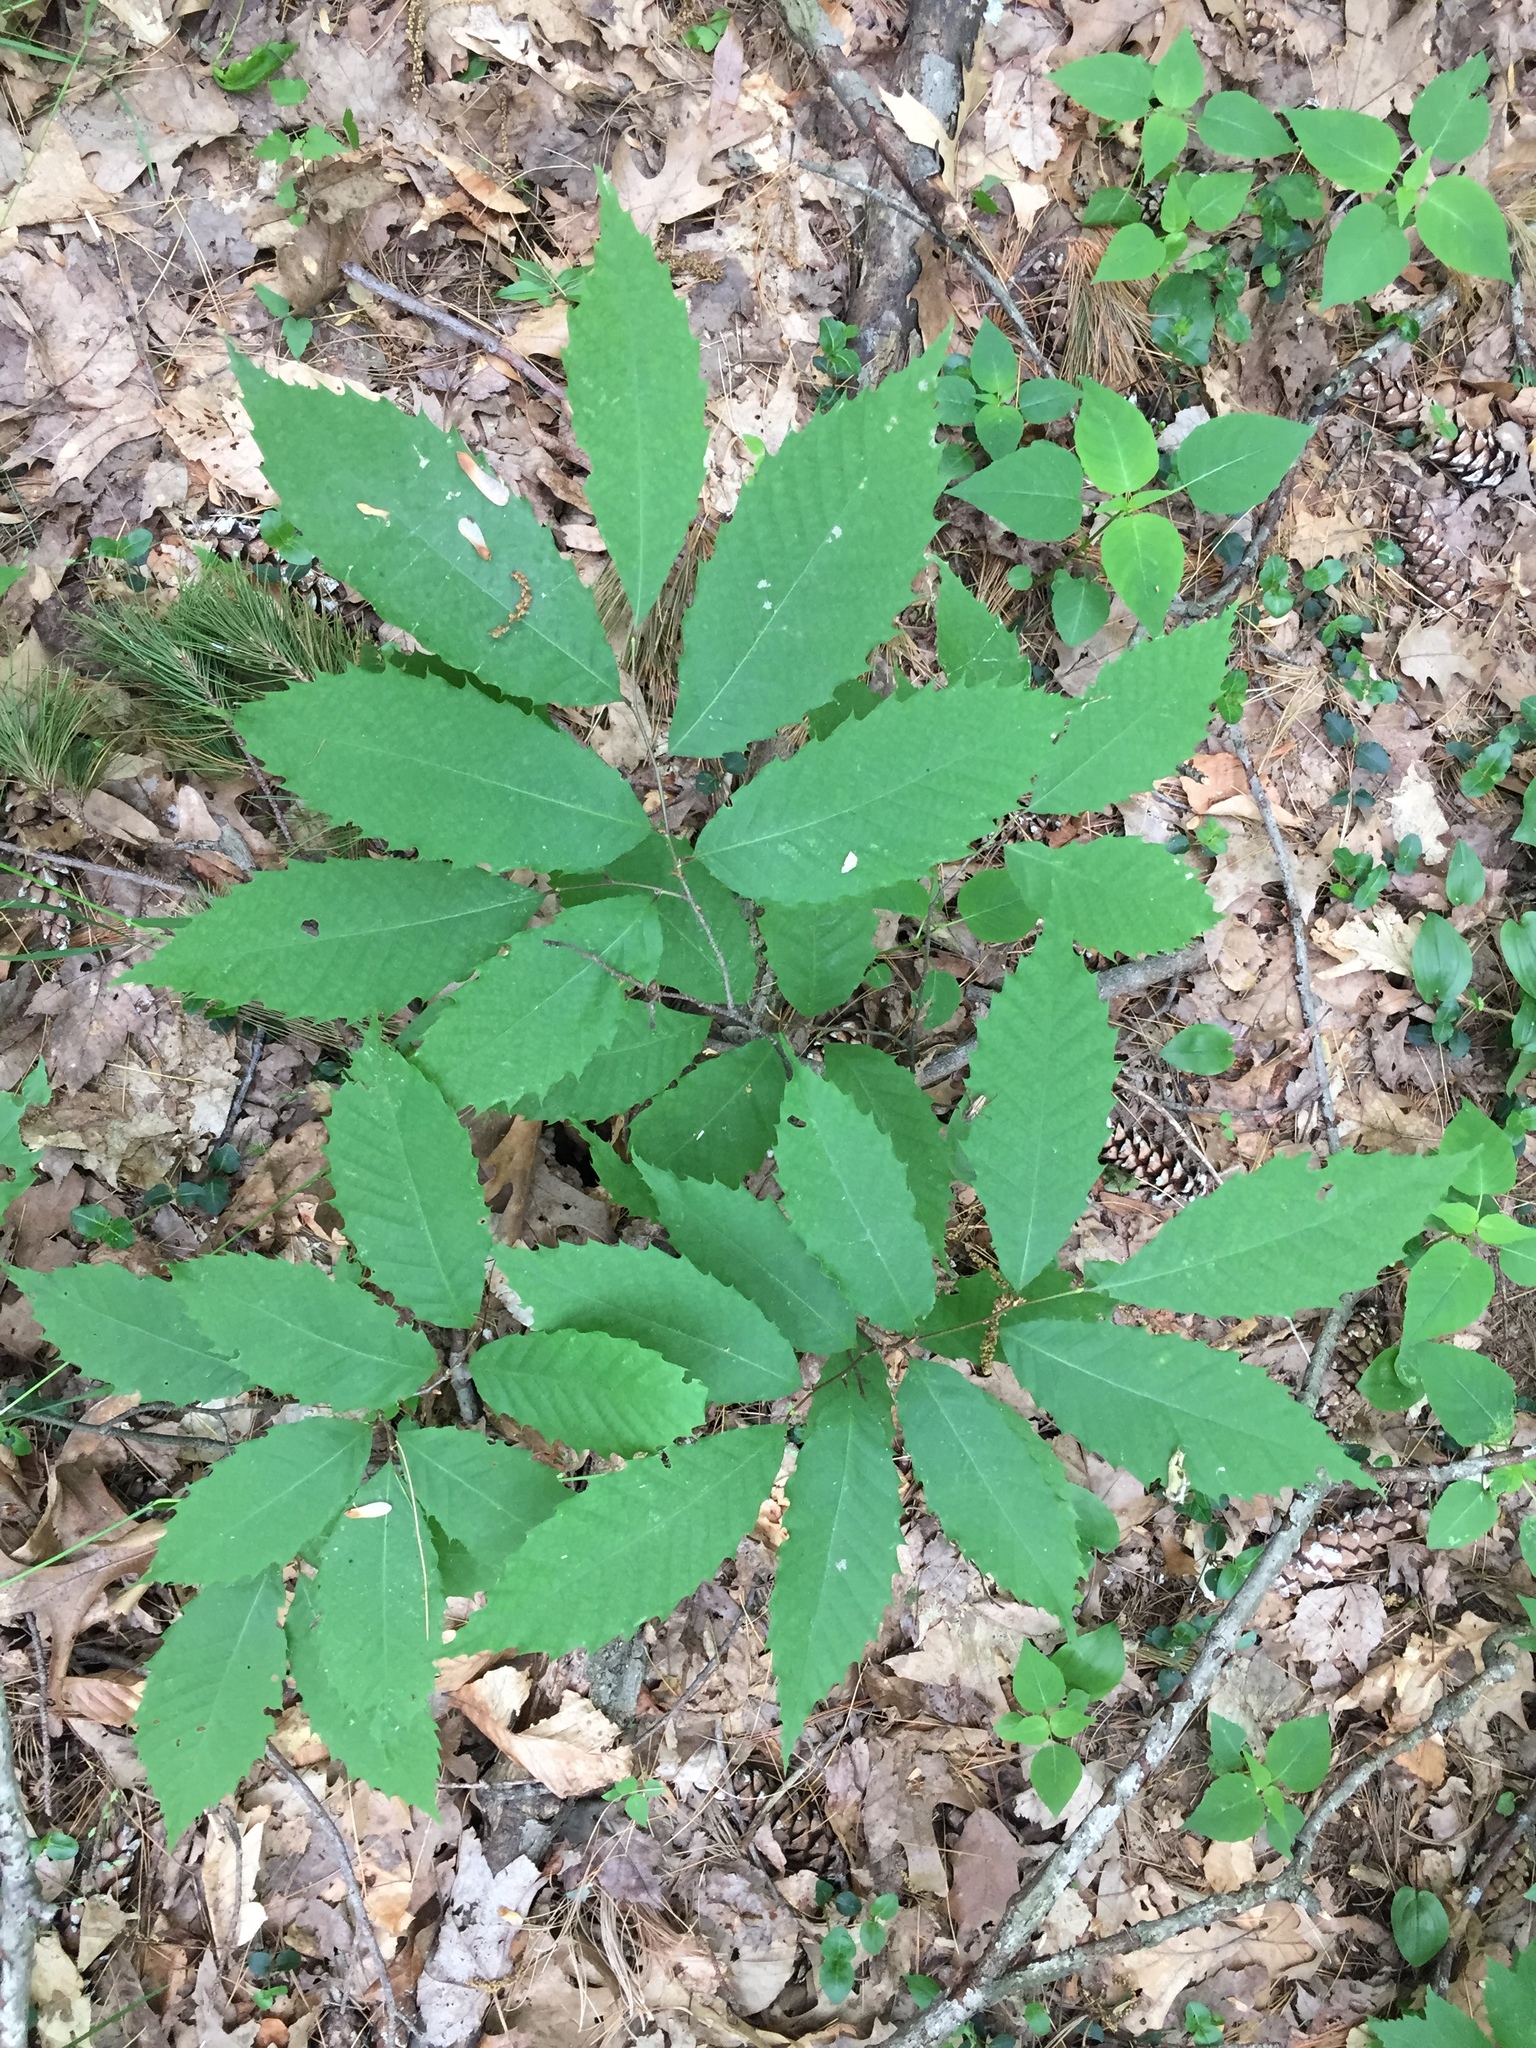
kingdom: Plantae
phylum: Tracheophyta
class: Magnoliopsida
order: Fagales
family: Fagaceae
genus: Castanea
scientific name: Castanea dentata
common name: American chestnut
